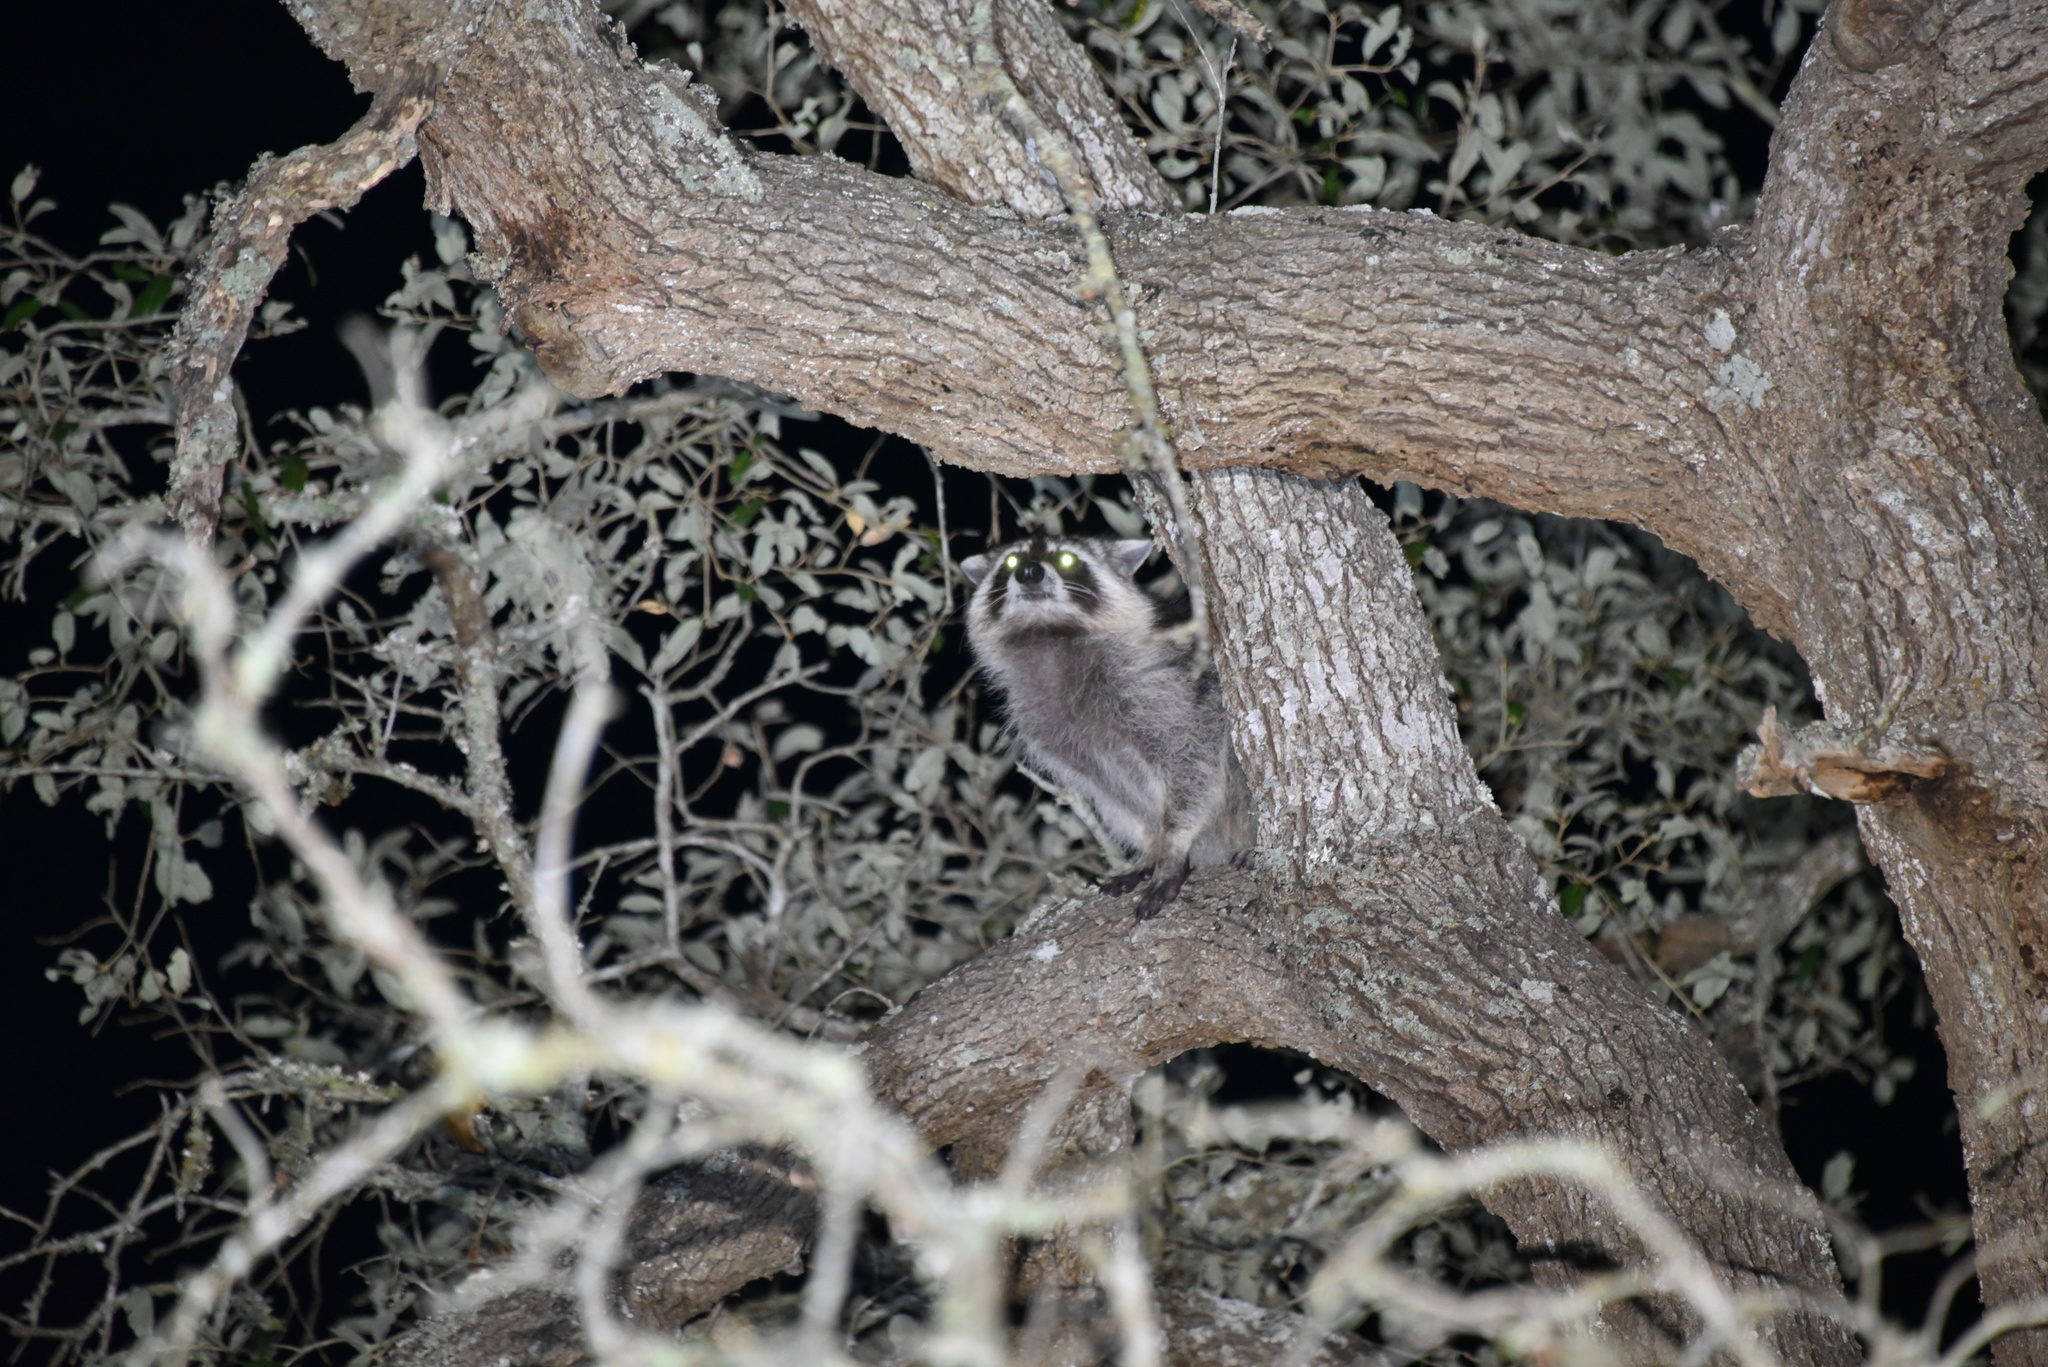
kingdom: Animalia
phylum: Chordata
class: Mammalia
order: Carnivora
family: Procyonidae
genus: Procyon
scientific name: Procyon lotor
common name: Raccoon
